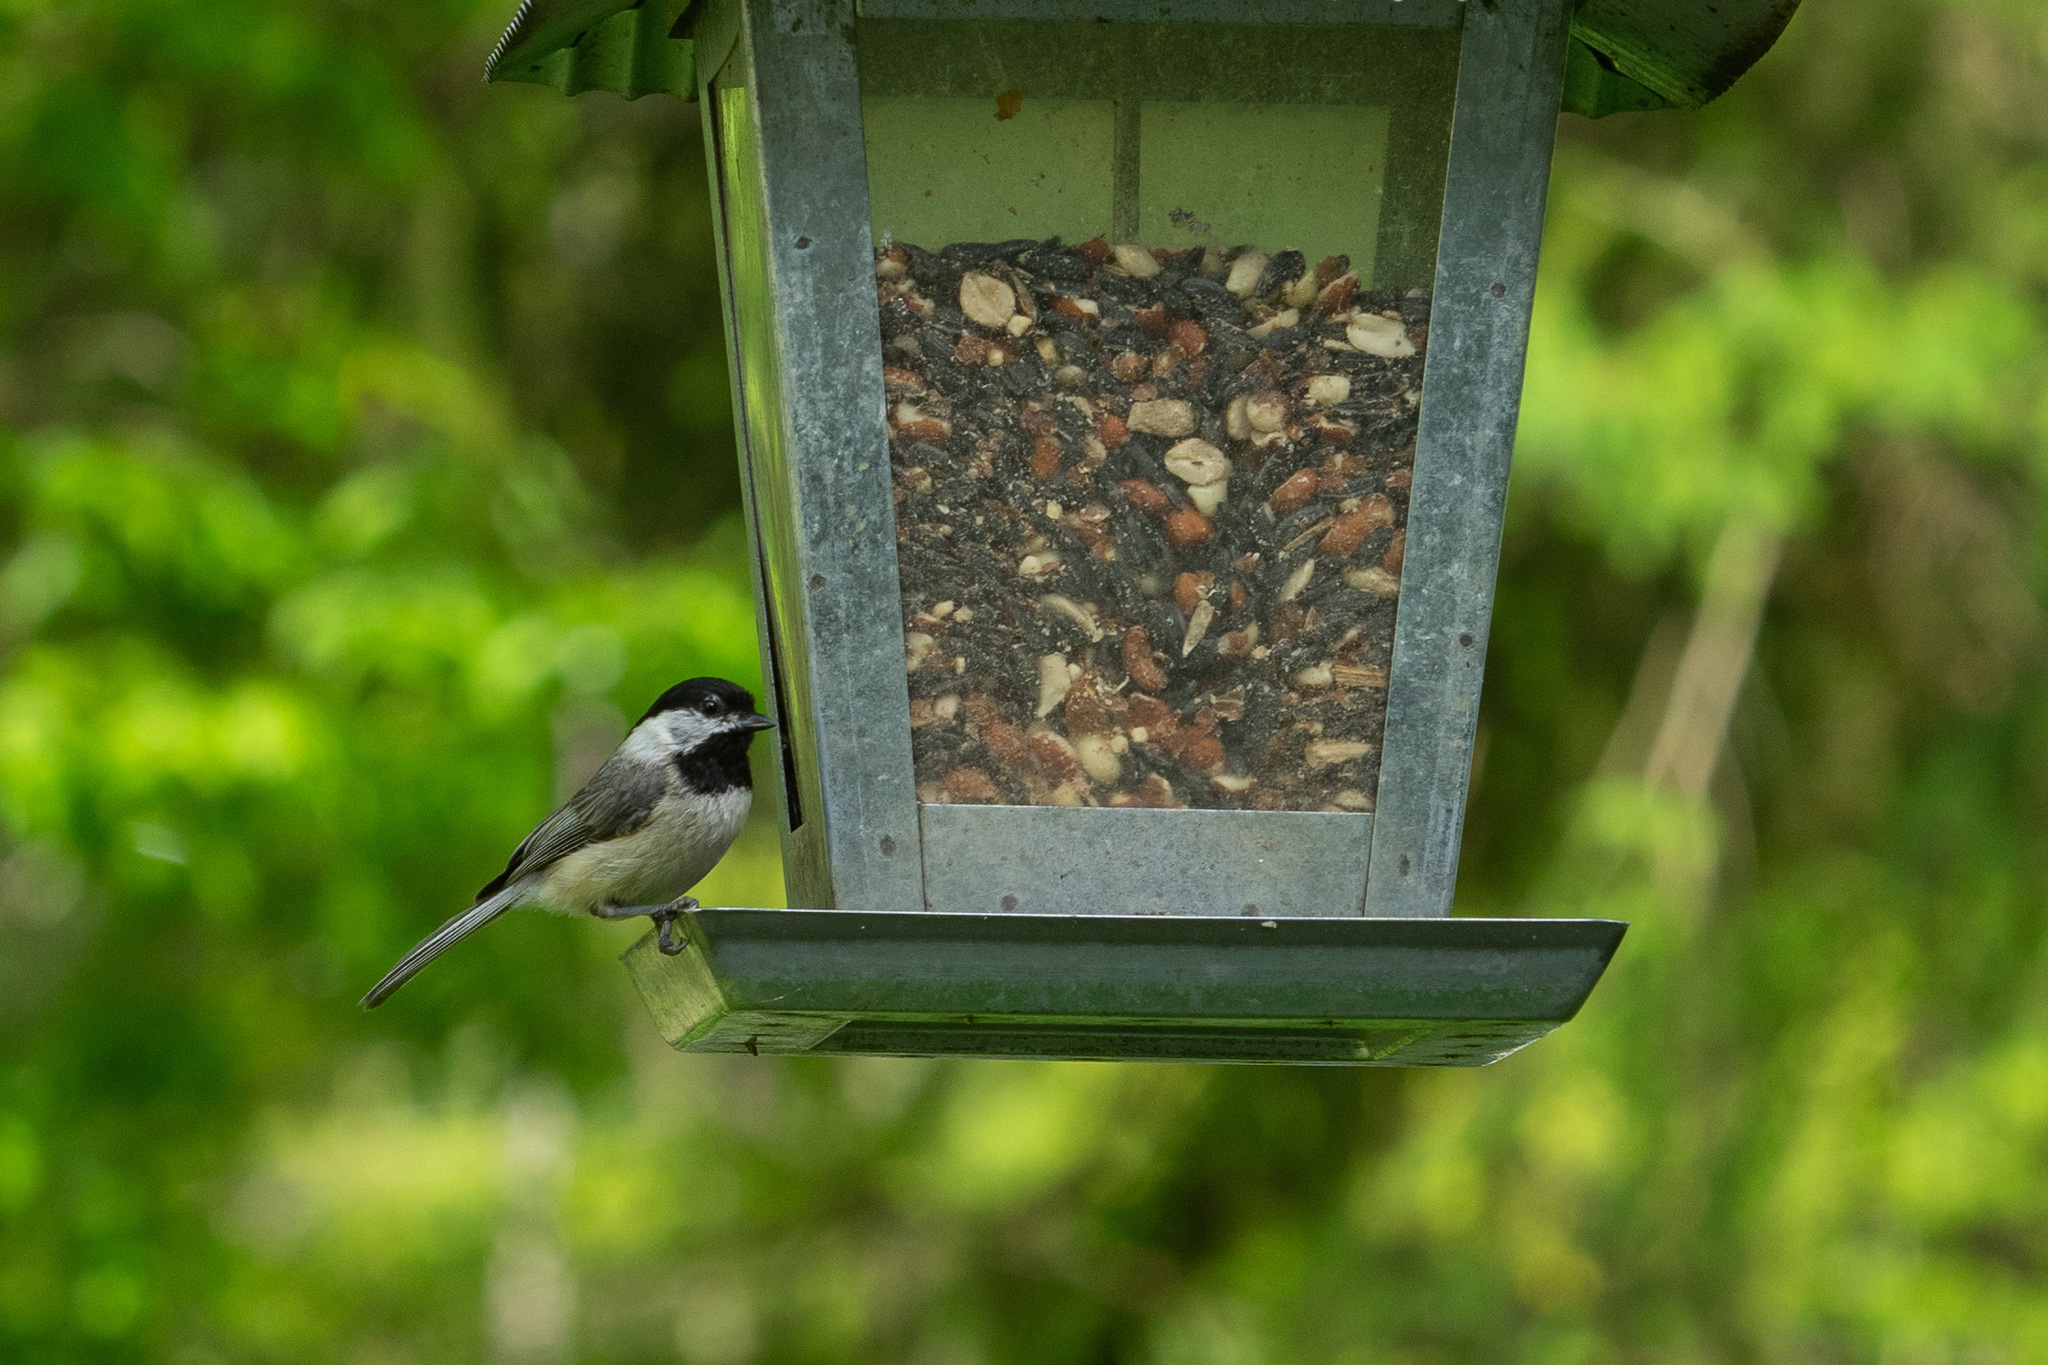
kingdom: Animalia
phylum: Chordata
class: Aves
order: Passeriformes
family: Paridae
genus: Poecile
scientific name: Poecile carolinensis
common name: Carolina chickadee
